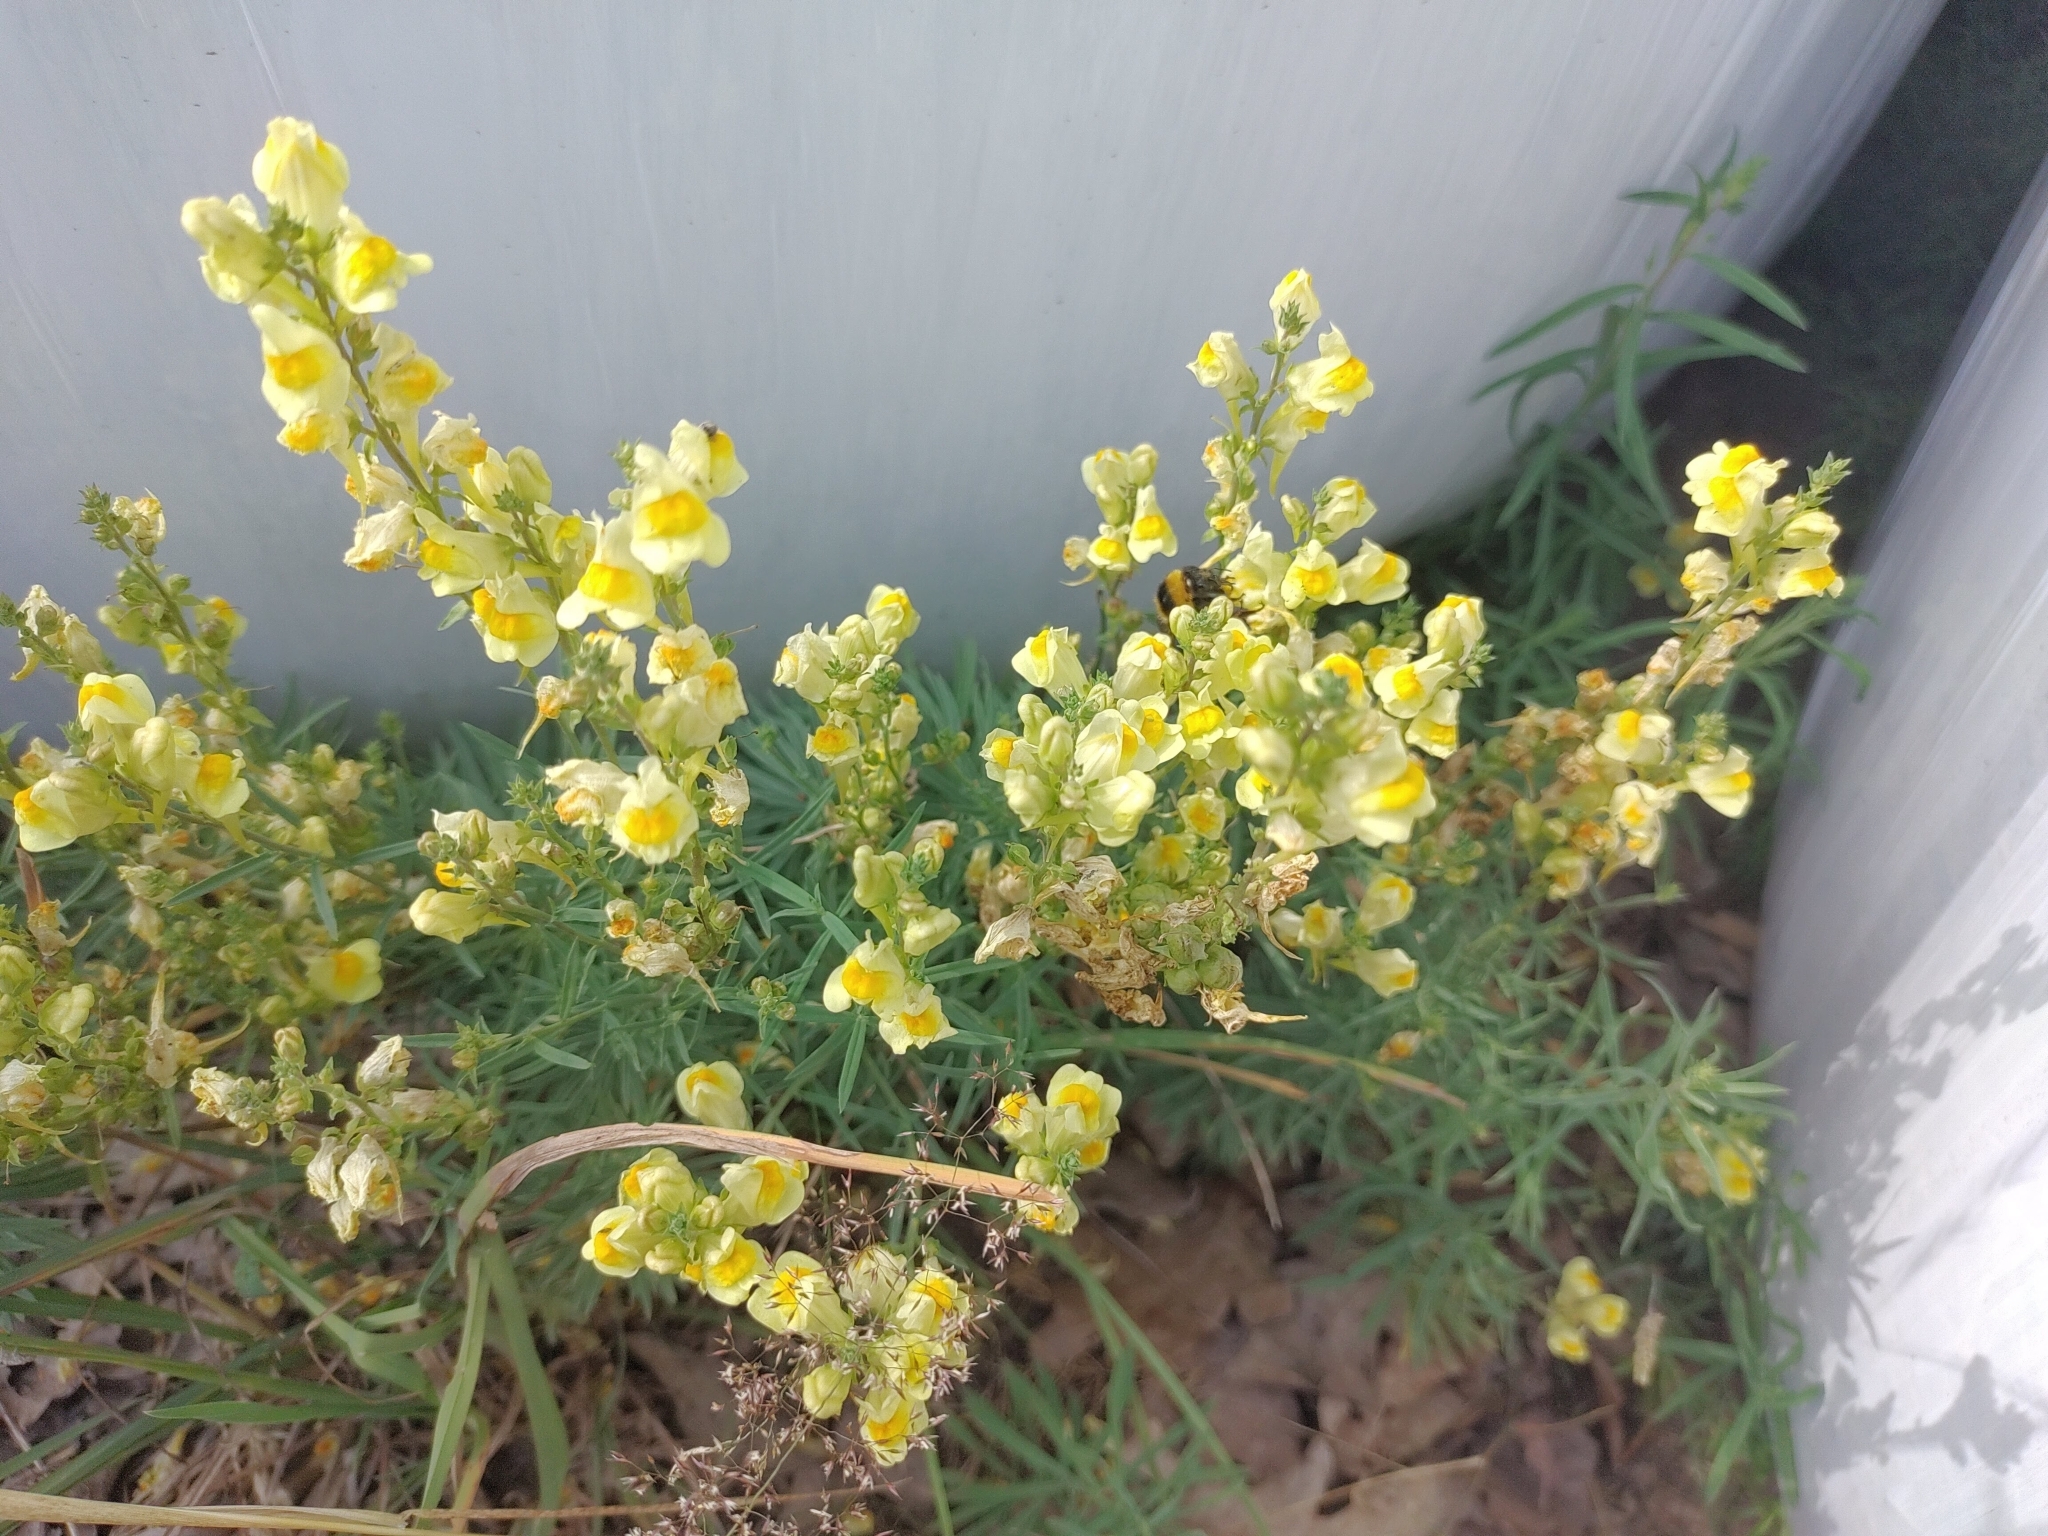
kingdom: Plantae
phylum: Tracheophyta
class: Magnoliopsida
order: Lamiales
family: Plantaginaceae
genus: Linaria
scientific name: Linaria vulgaris
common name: Butter and eggs
